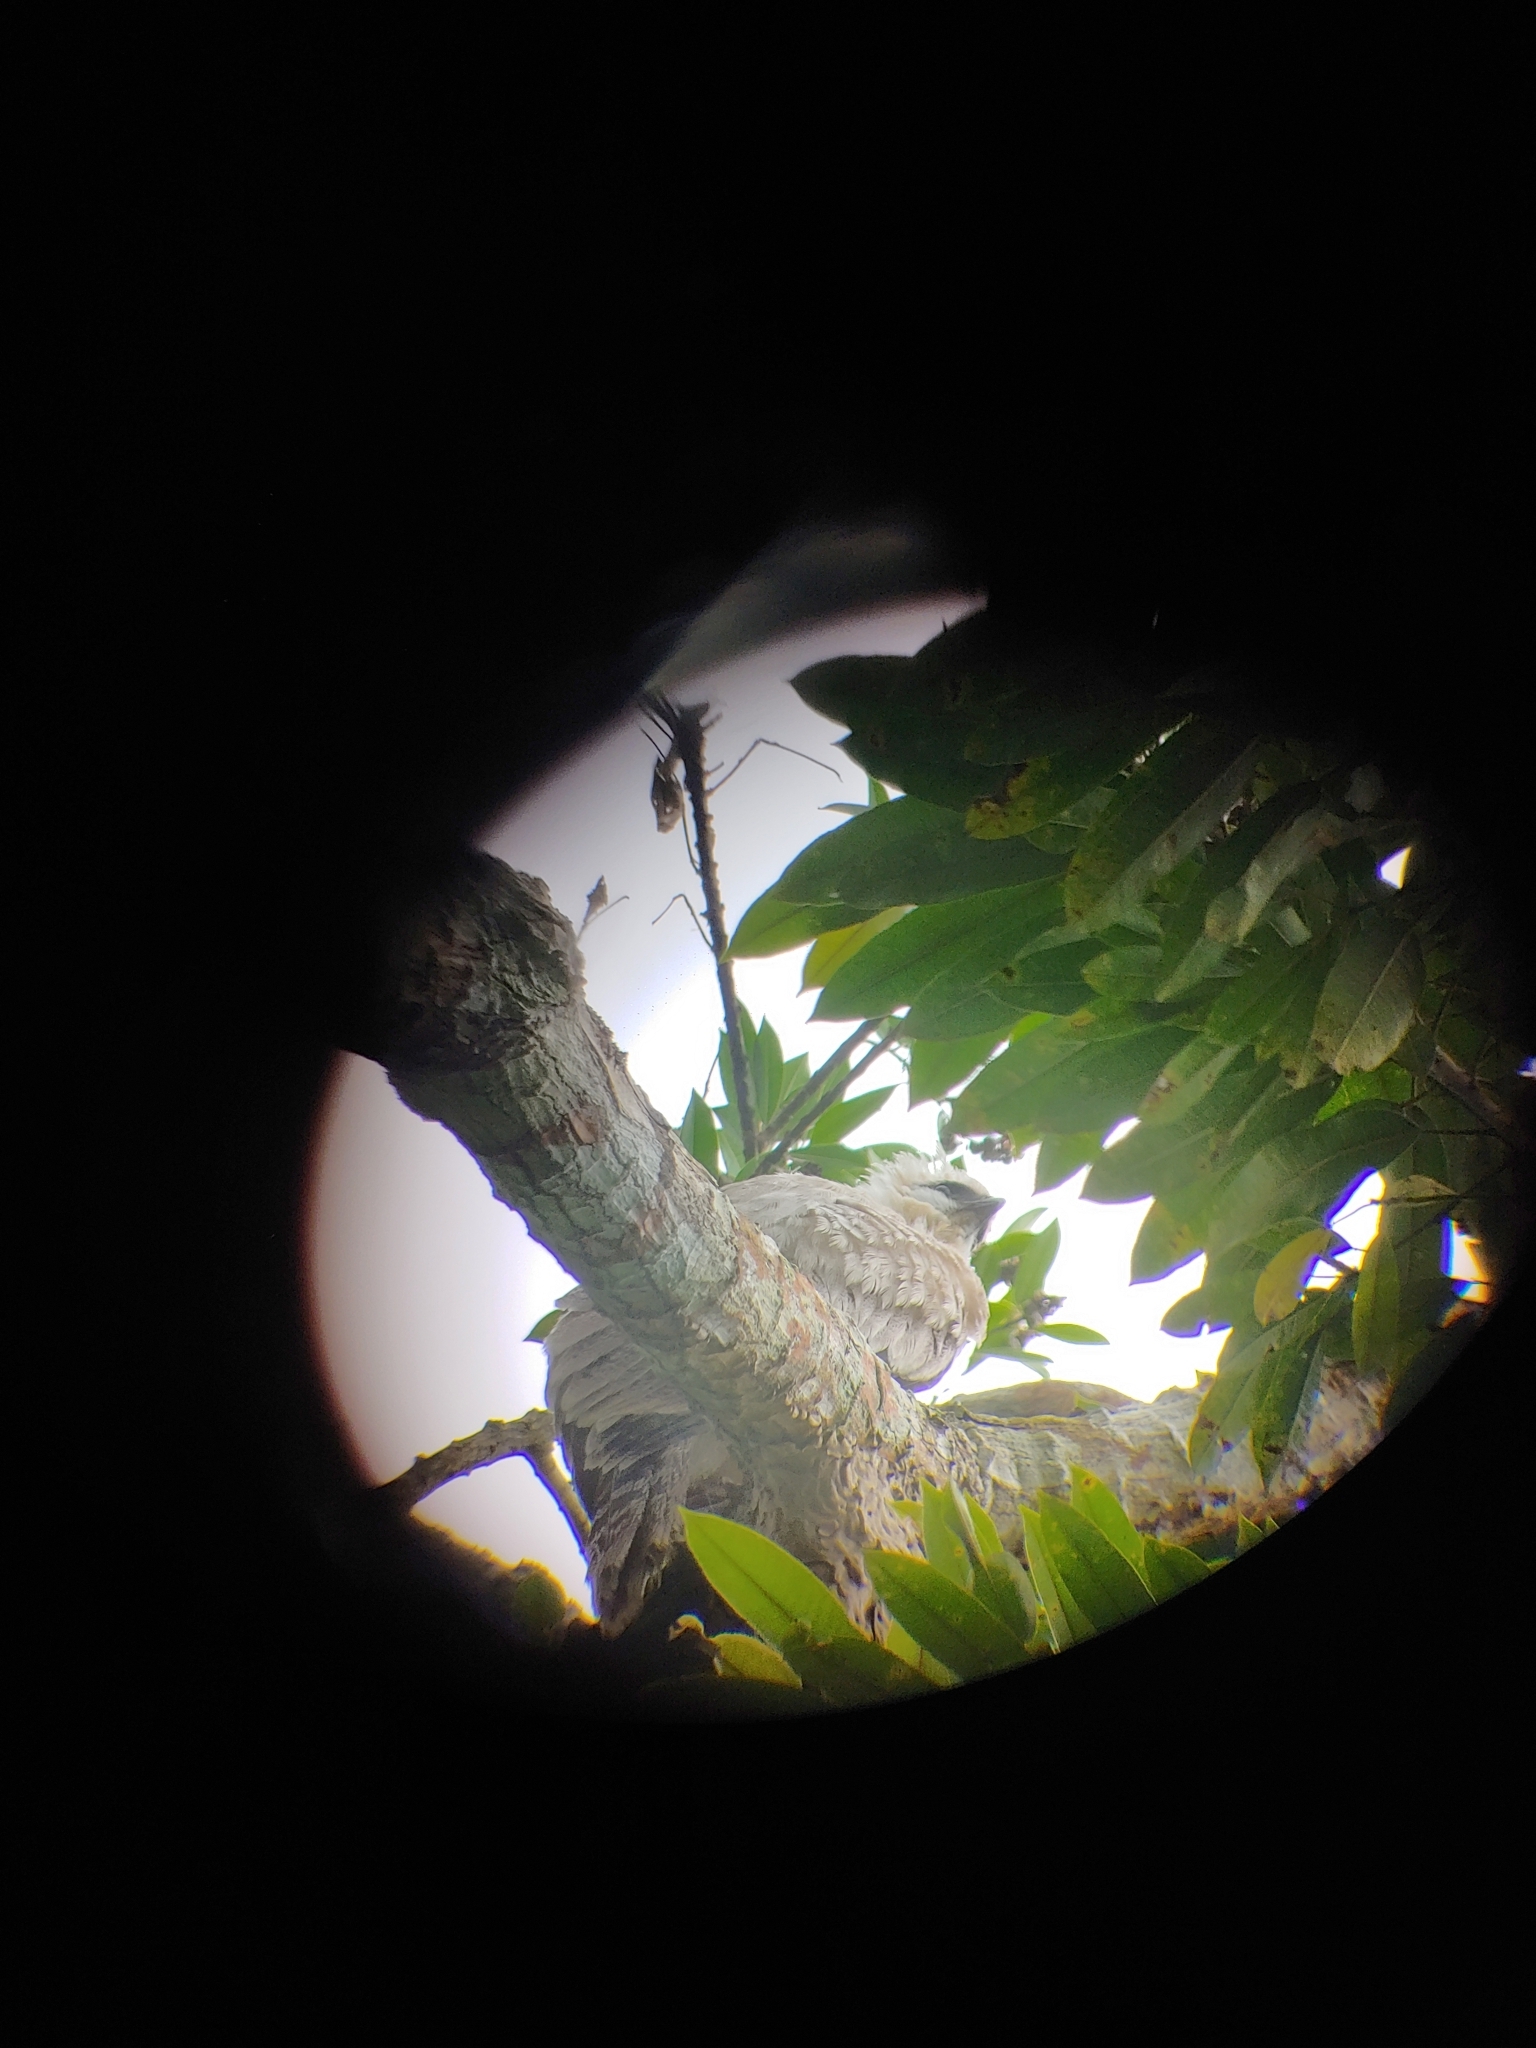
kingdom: Animalia
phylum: Chordata
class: Aves
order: Accipitriformes
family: Accipitridae
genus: Morphnus
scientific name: Morphnus guianensis
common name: Crested eagle
